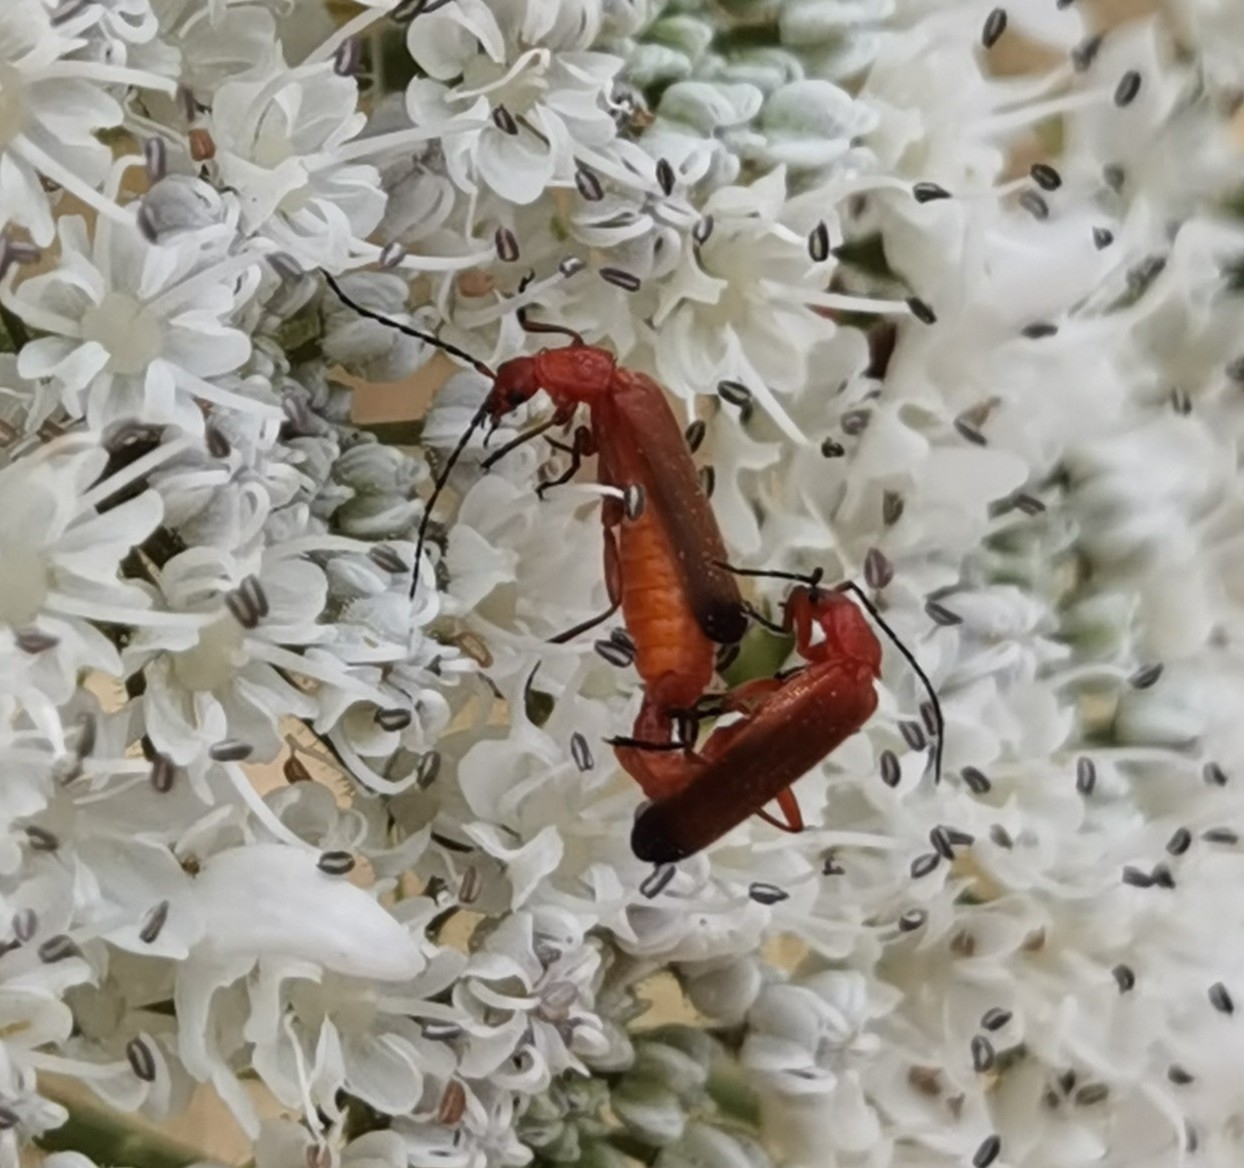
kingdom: Animalia
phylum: Arthropoda
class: Insecta
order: Coleoptera
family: Cantharidae
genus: Rhagonycha
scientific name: Rhagonycha fulva
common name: Common red soldier beetle
